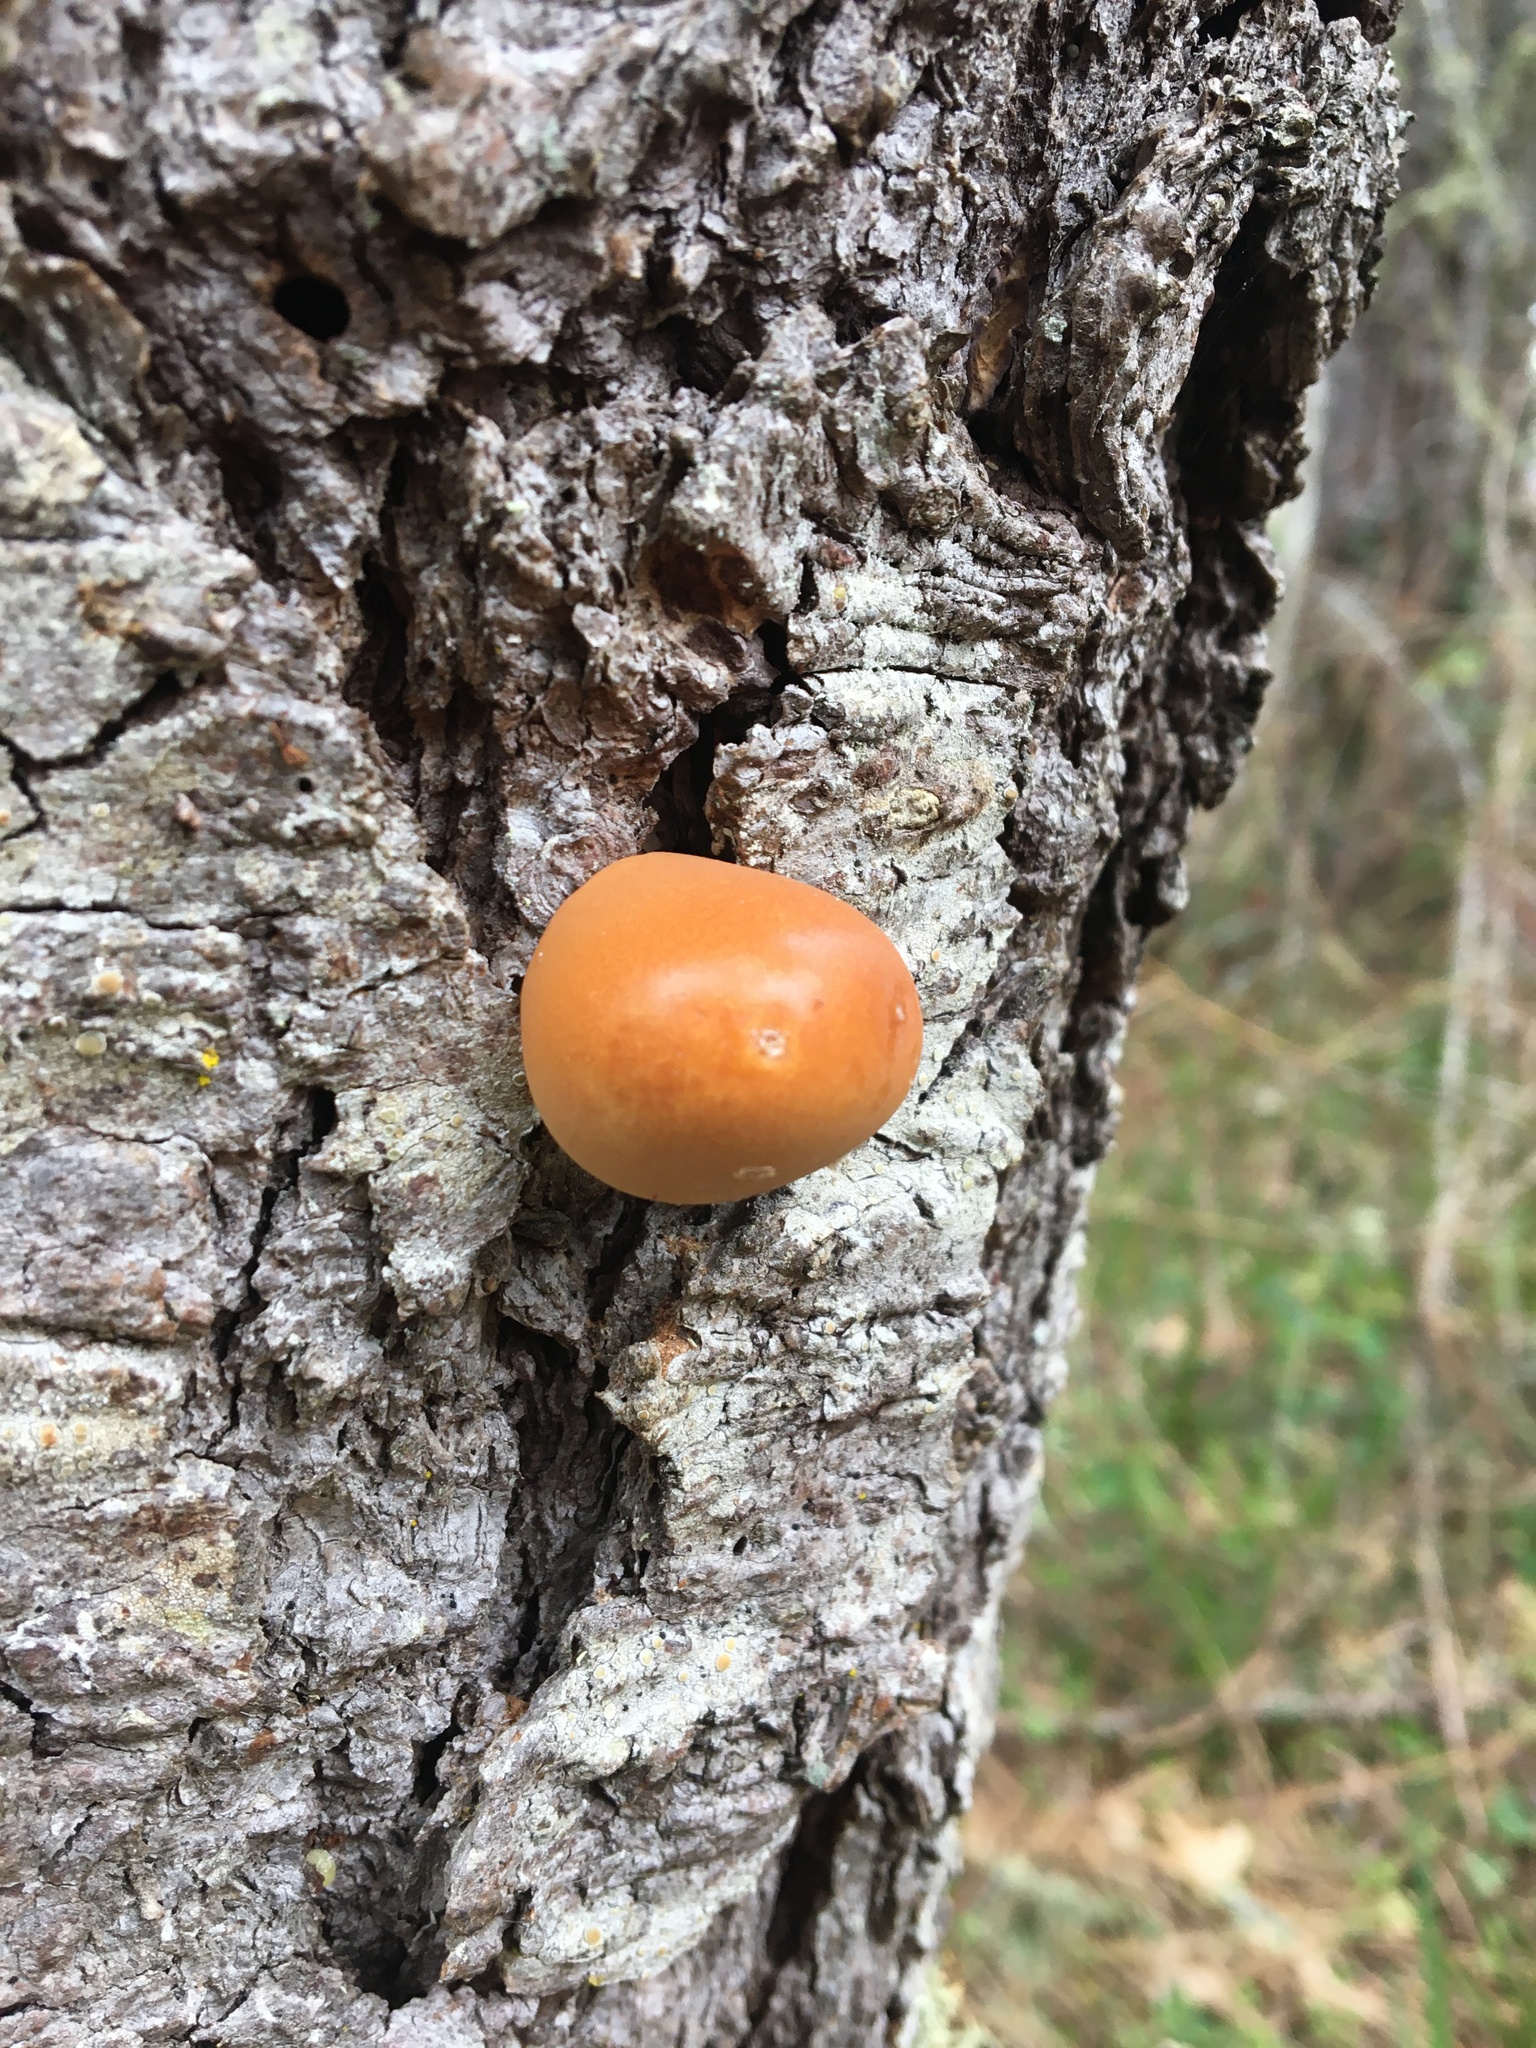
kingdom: Fungi
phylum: Basidiomycota
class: Agaricomycetes
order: Polyporales
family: Polyporaceae
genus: Cryptoporus
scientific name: Cryptoporus volvatus
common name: Veiled polypore
